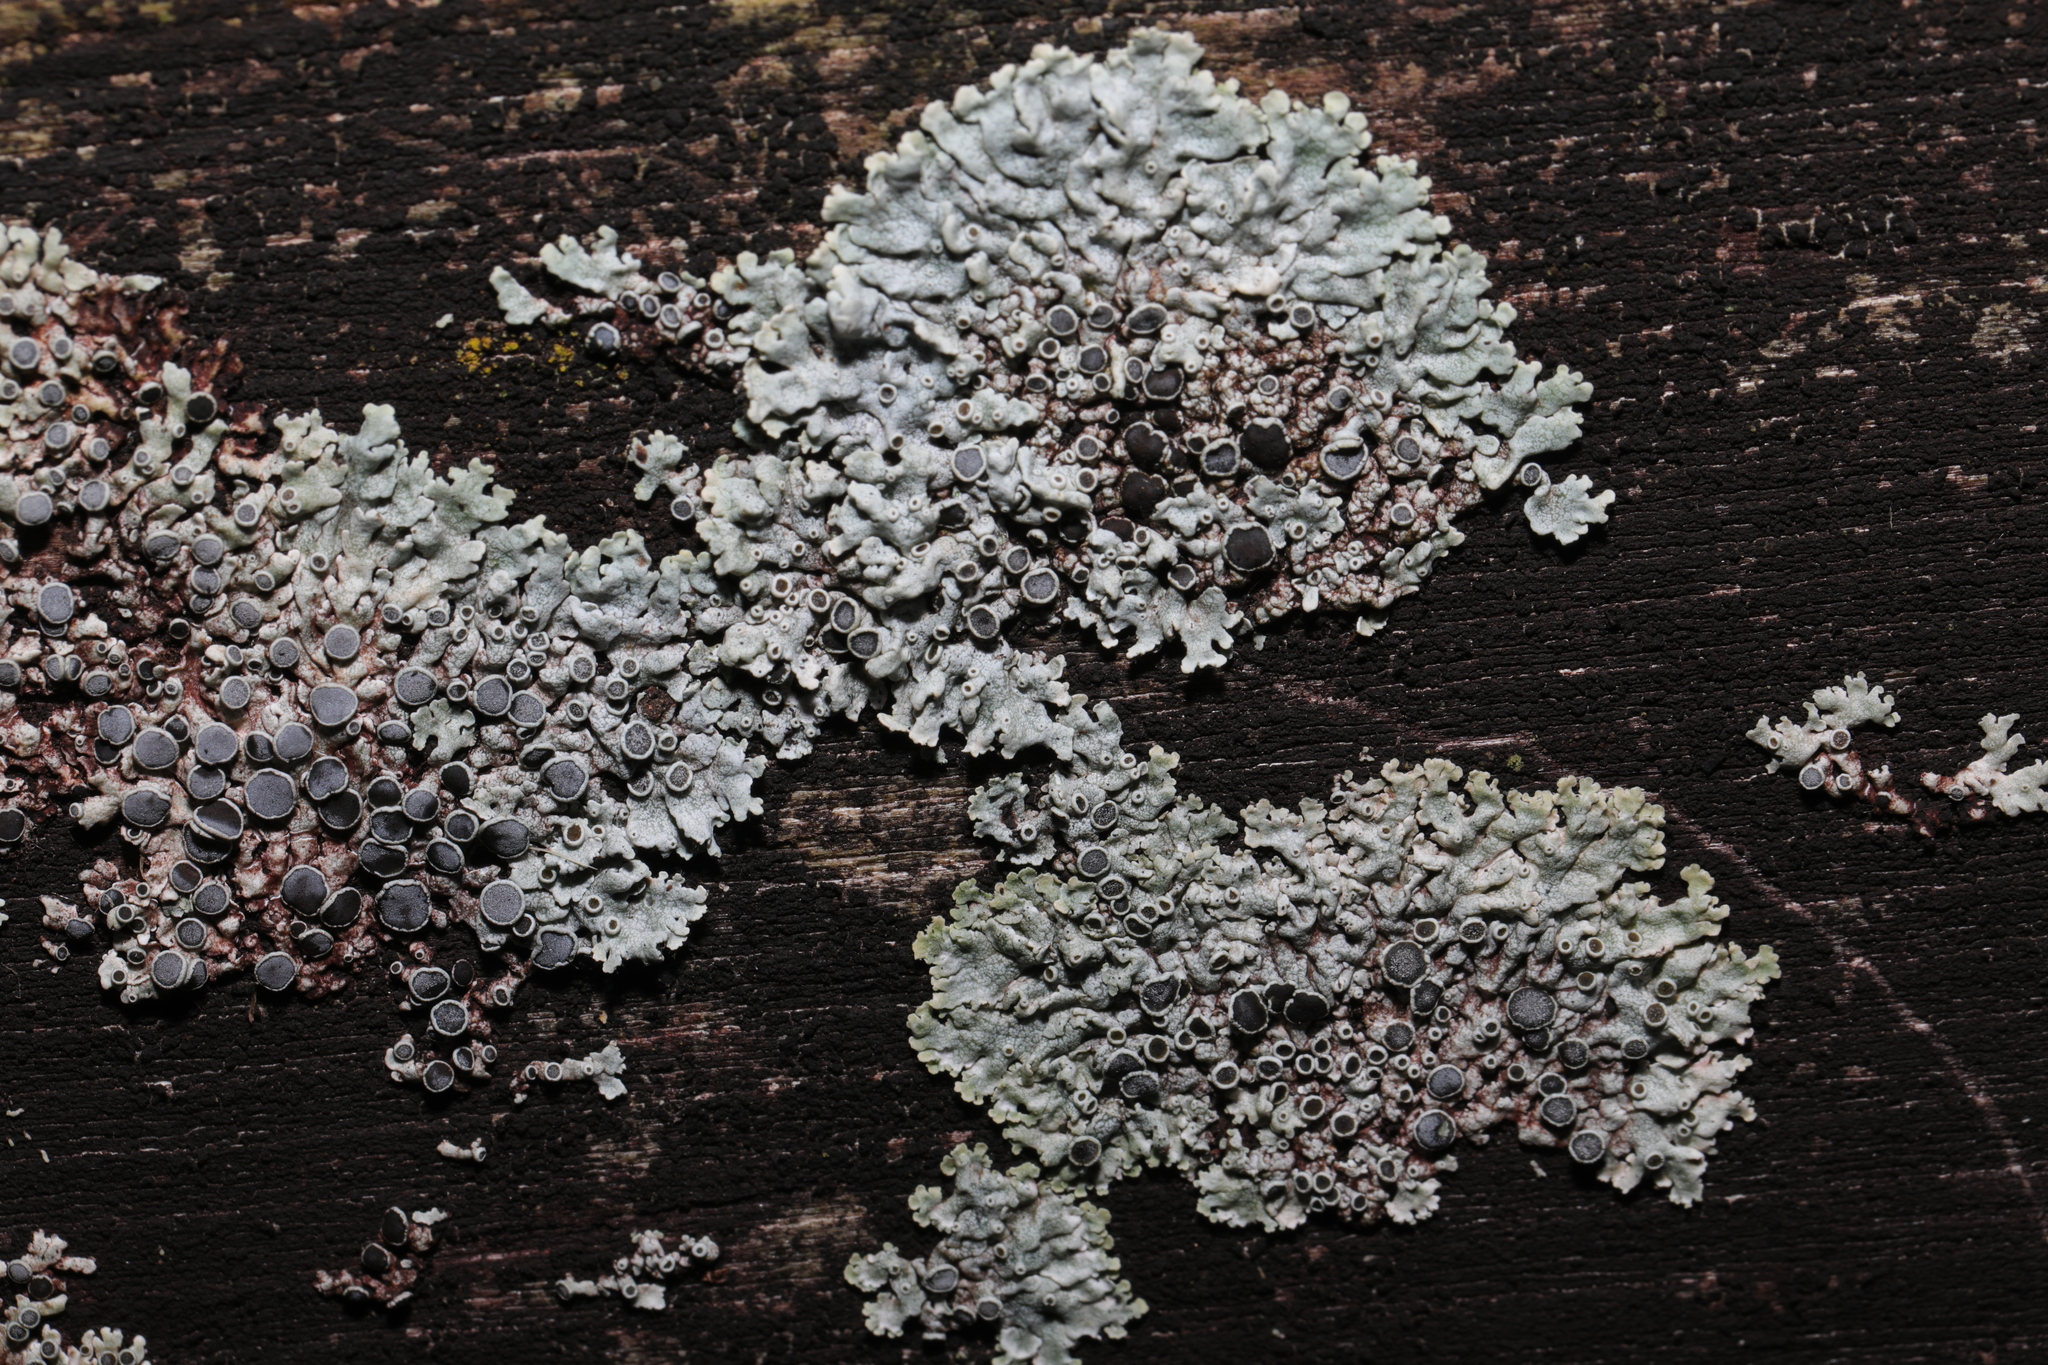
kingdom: Fungi
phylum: Ascomycota
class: Lecanoromycetes
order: Caliciales
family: Physciaceae
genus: Physcia
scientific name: Physcia aipolia
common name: Hoary rosette lichen
